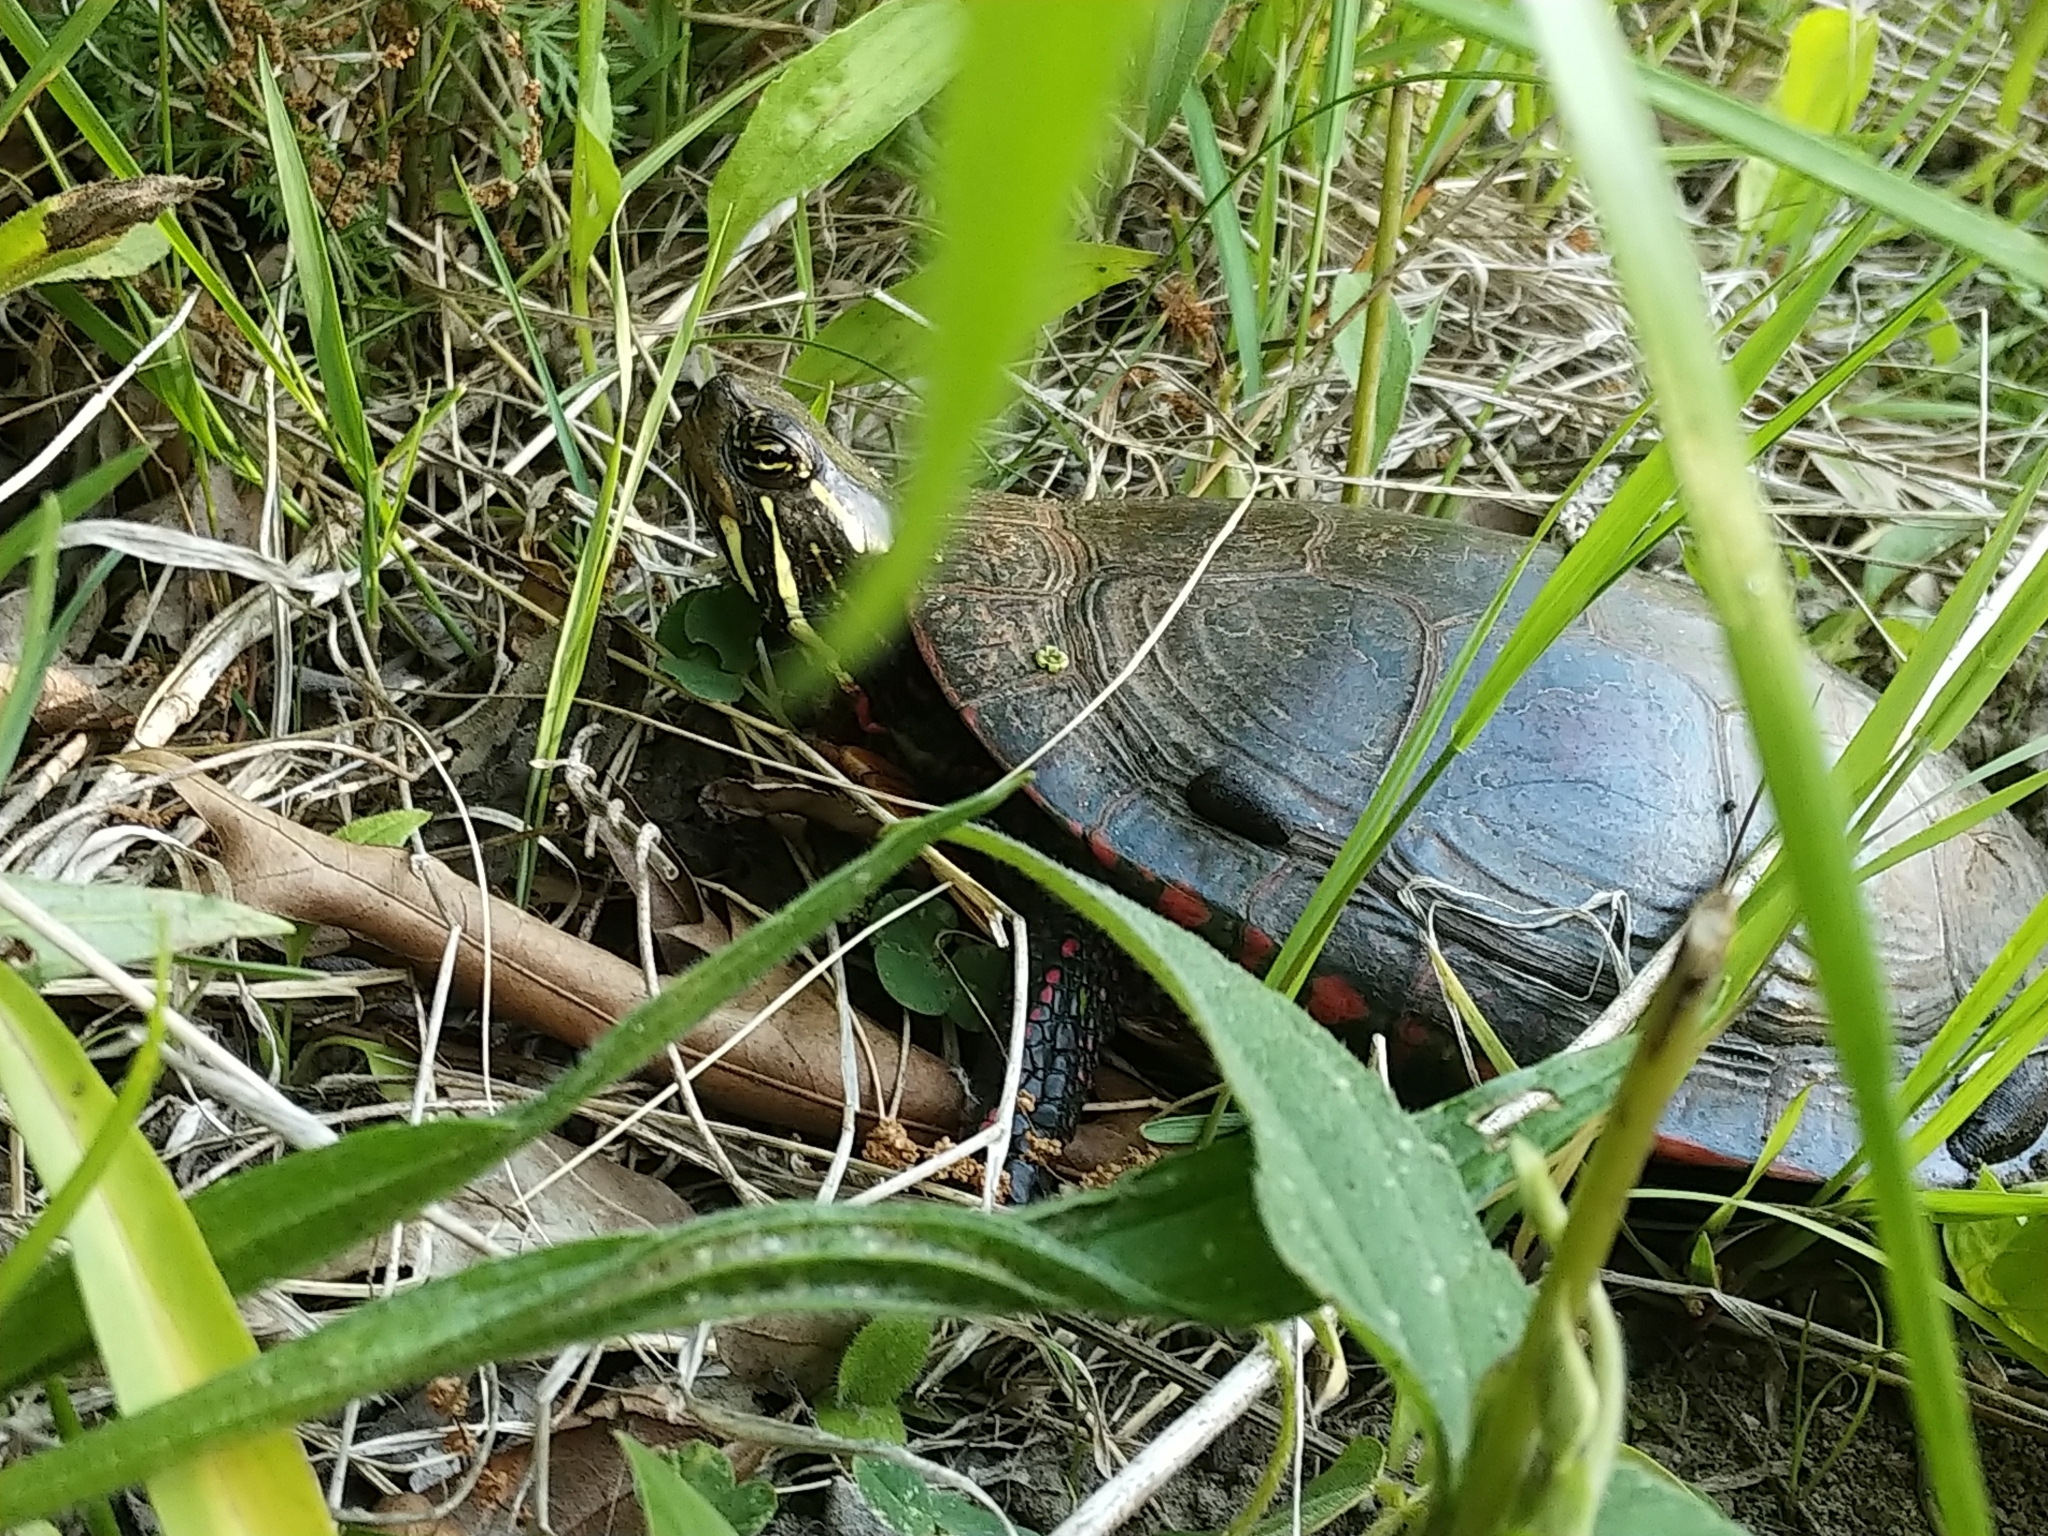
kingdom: Animalia
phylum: Chordata
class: Testudines
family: Emydidae
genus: Chrysemys
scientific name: Chrysemys picta
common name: Painted turtle
